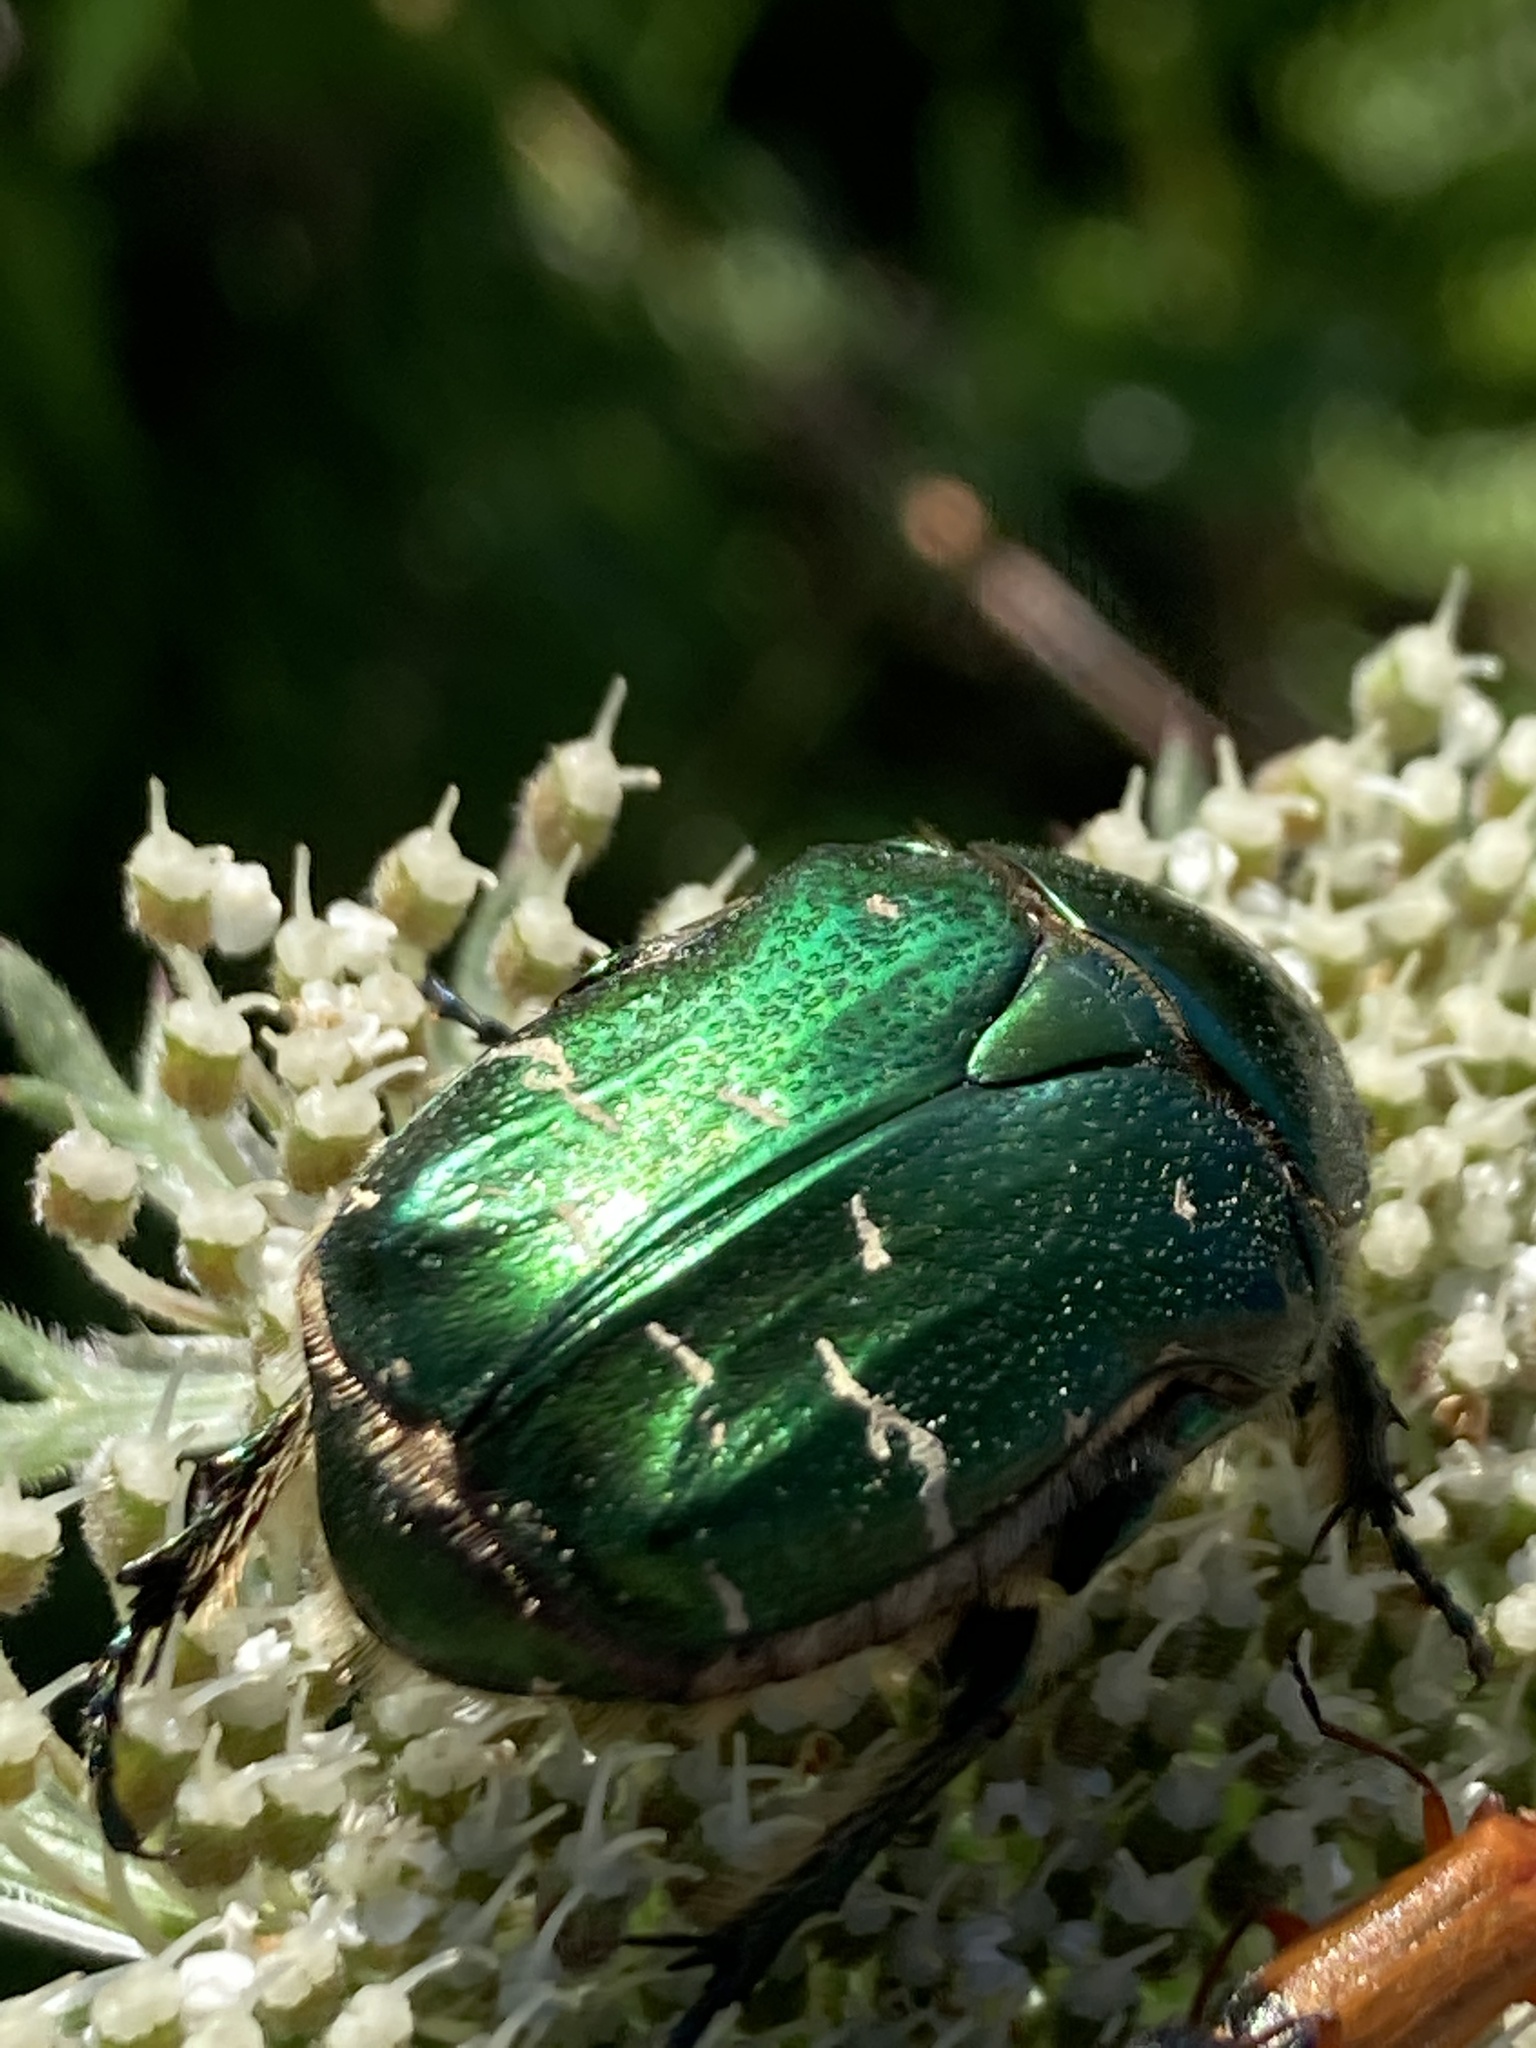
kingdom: Animalia
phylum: Arthropoda
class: Insecta
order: Coleoptera
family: Scarabaeidae
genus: Cetonia
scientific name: Cetonia aurata
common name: Rose chafer
